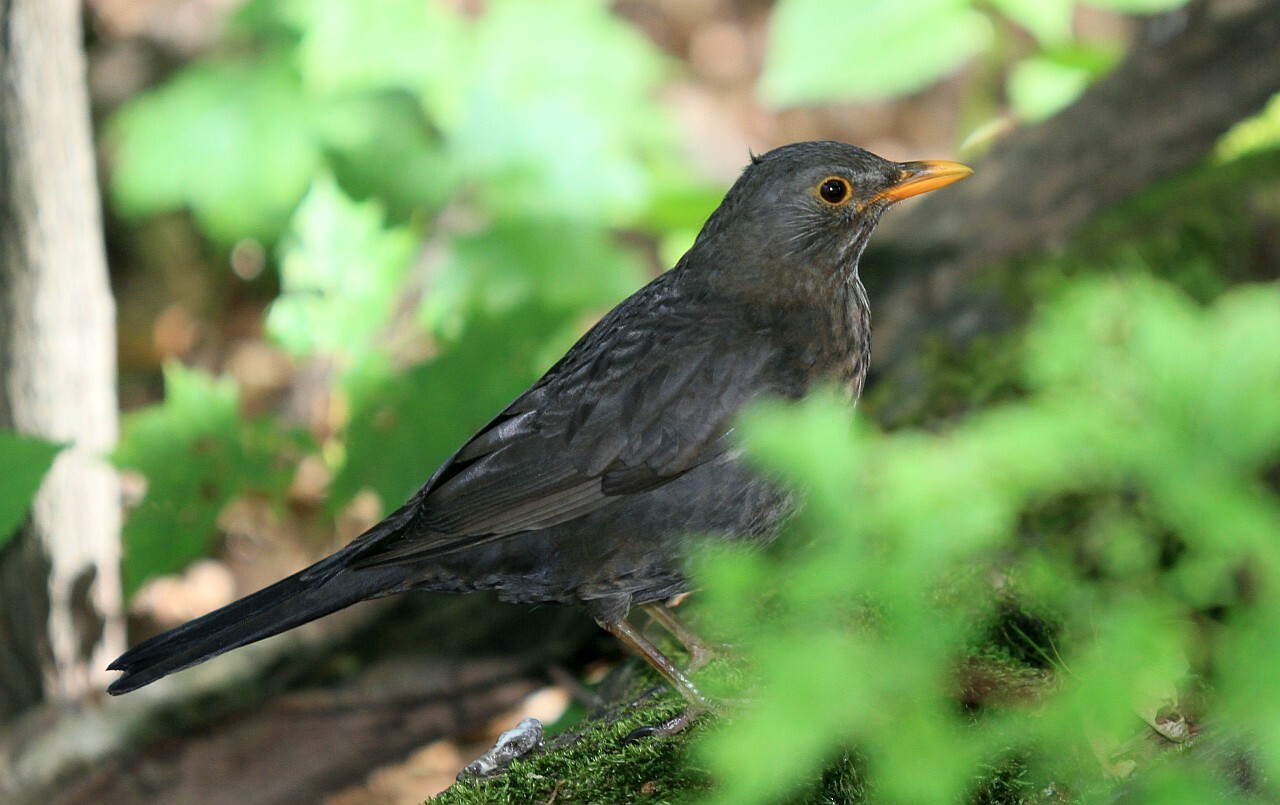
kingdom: Animalia
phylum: Chordata
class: Aves
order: Passeriformes
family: Turdidae
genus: Turdus
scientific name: Turdus merula
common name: Common blackbird
